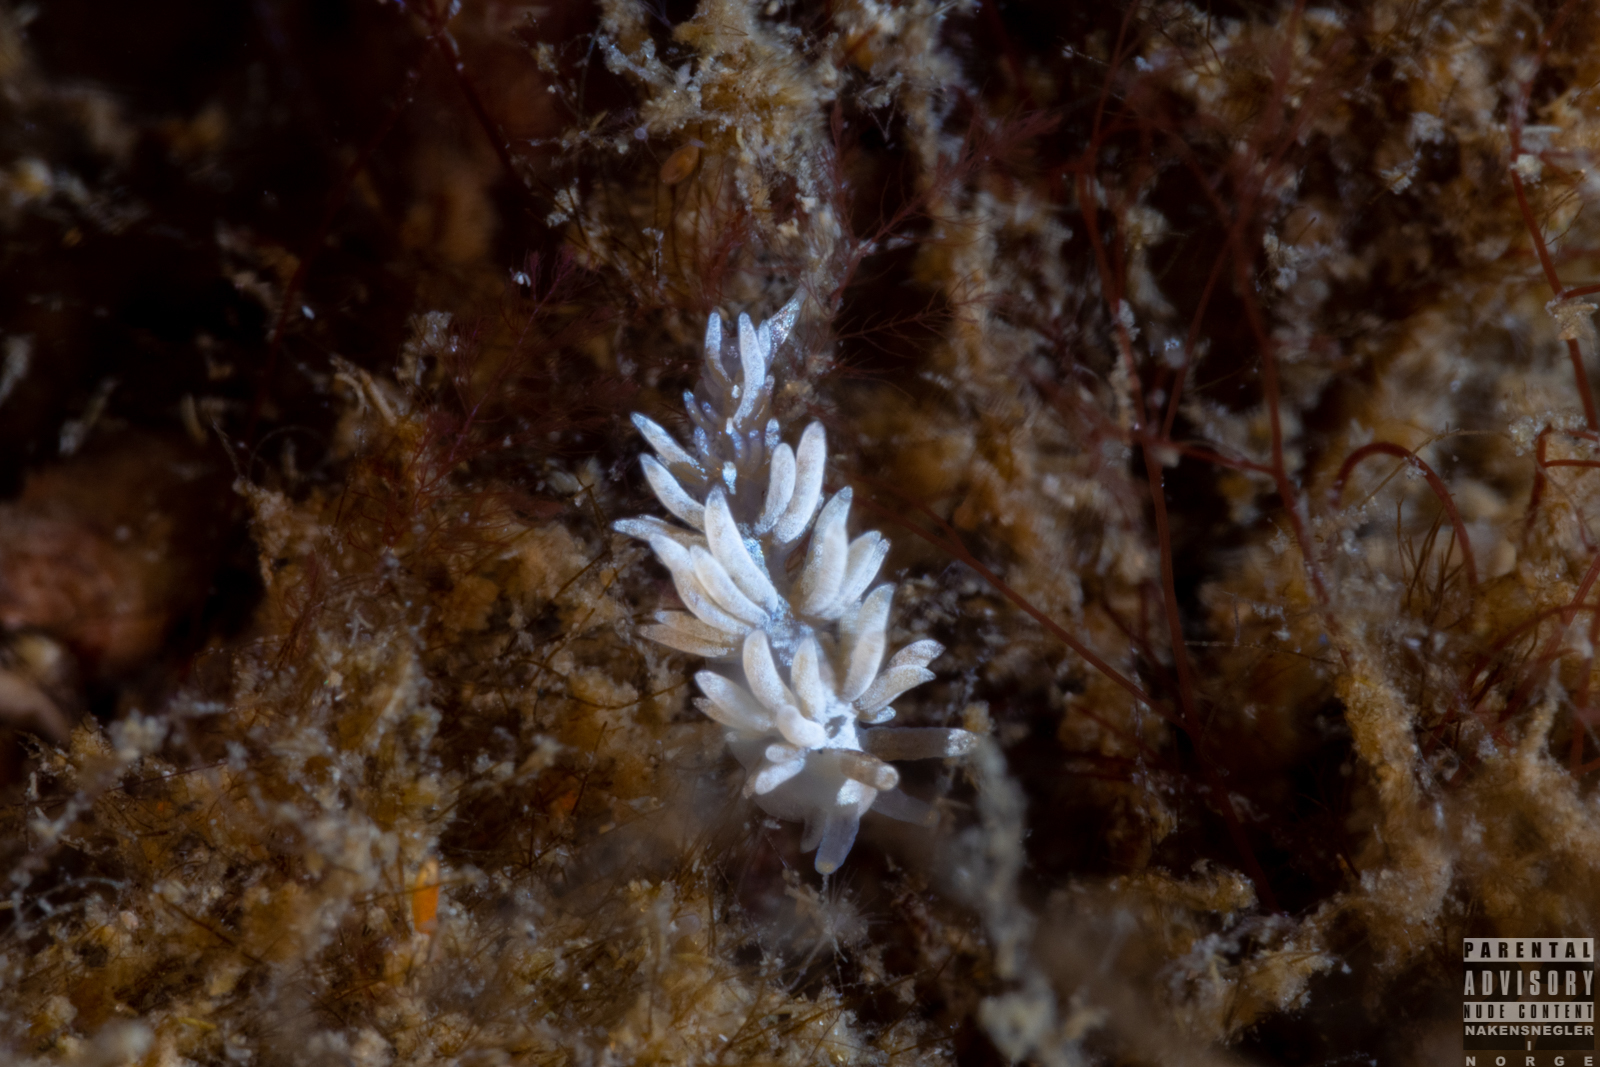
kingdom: Animalia
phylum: Mollusca
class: Gastropoda
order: Nudibranchia
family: Facelinidae
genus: Favorinus
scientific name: Favorinus branchialis
